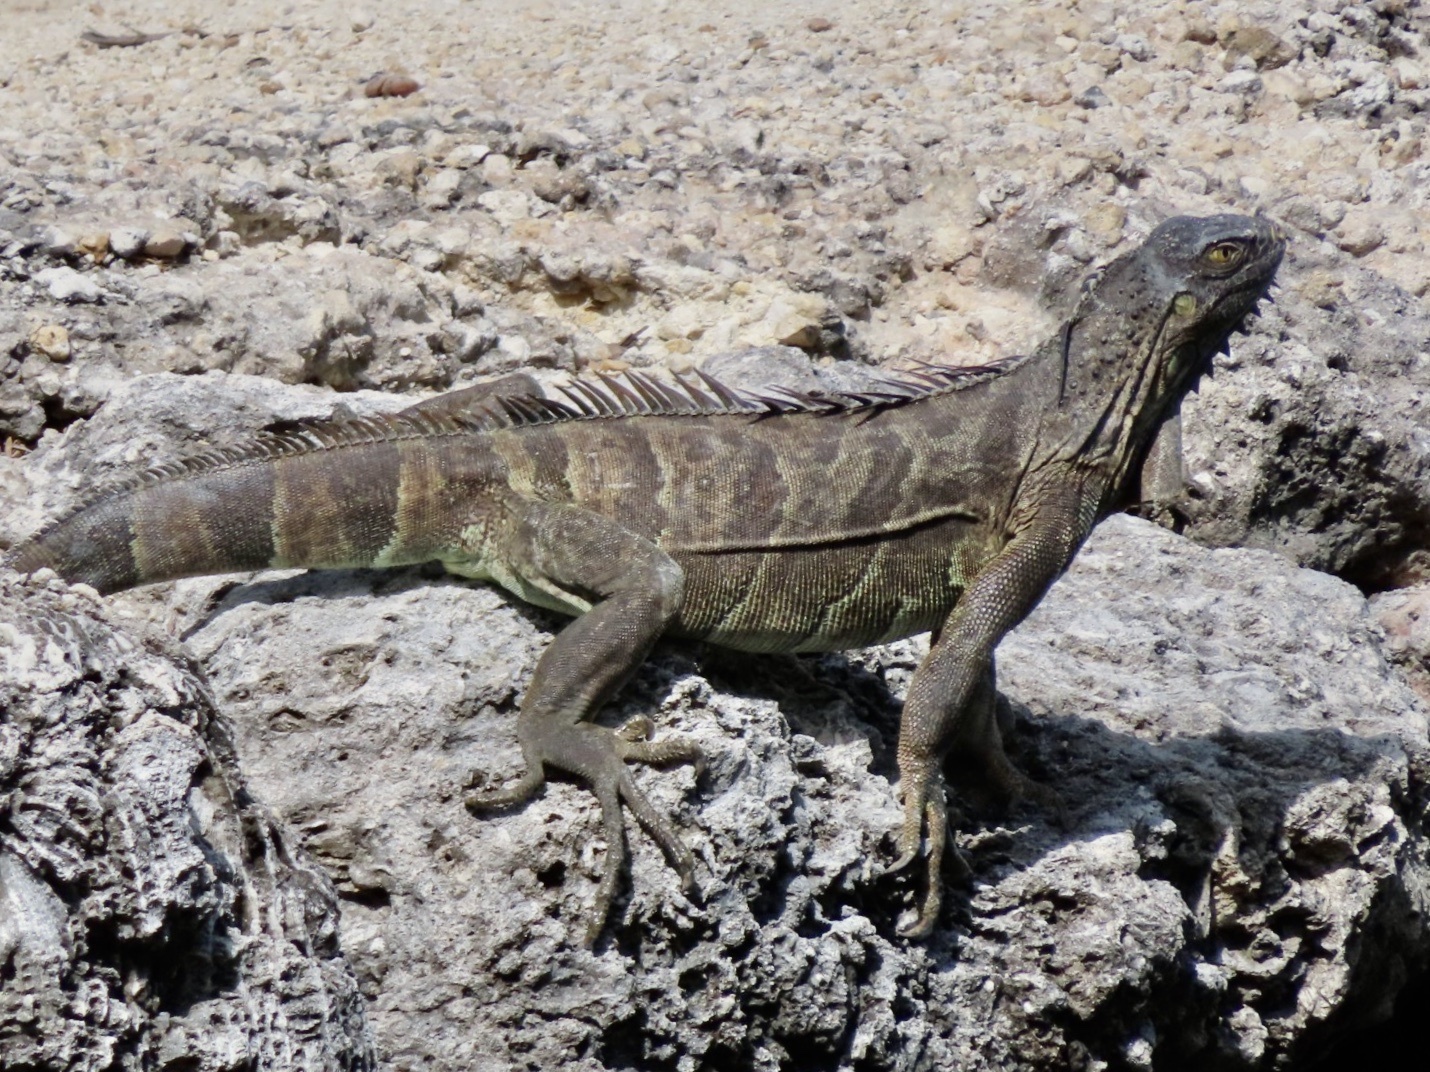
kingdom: Animalia
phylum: Chordata
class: Squamata
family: Iguanidae
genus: Iguana
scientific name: Iguana iguana
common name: Green iguana
